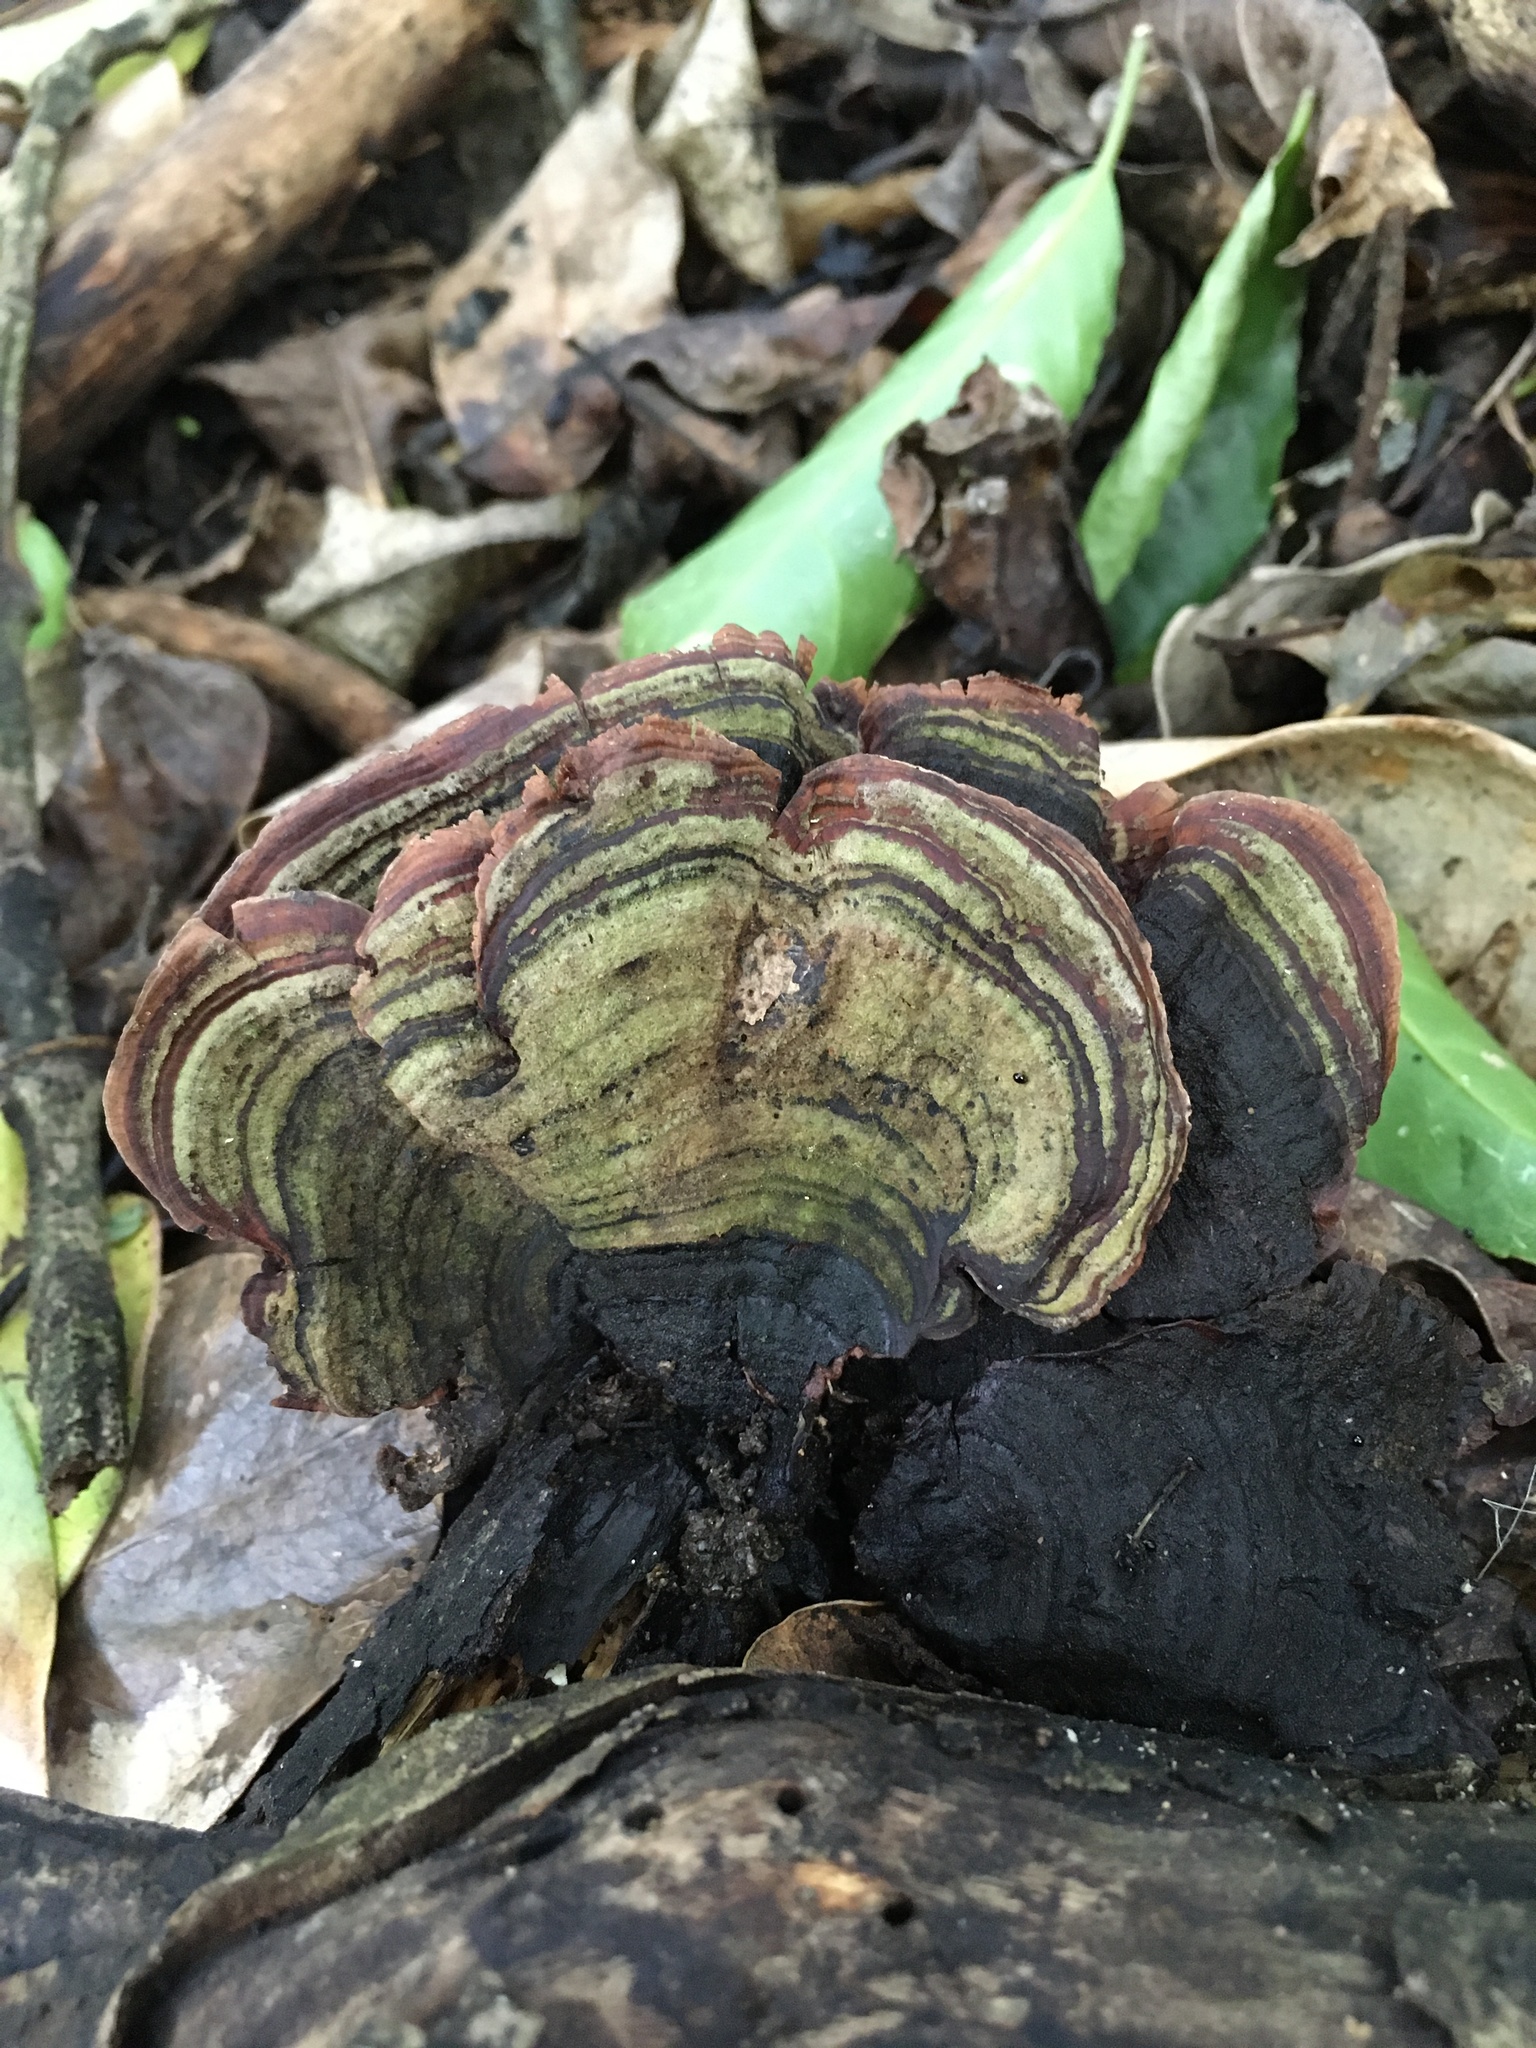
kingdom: Fungi
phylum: Basidiomycota
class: Agaricomycetes
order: Russulales
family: Stereaceae
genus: Stereum
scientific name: Stereum versicolor
